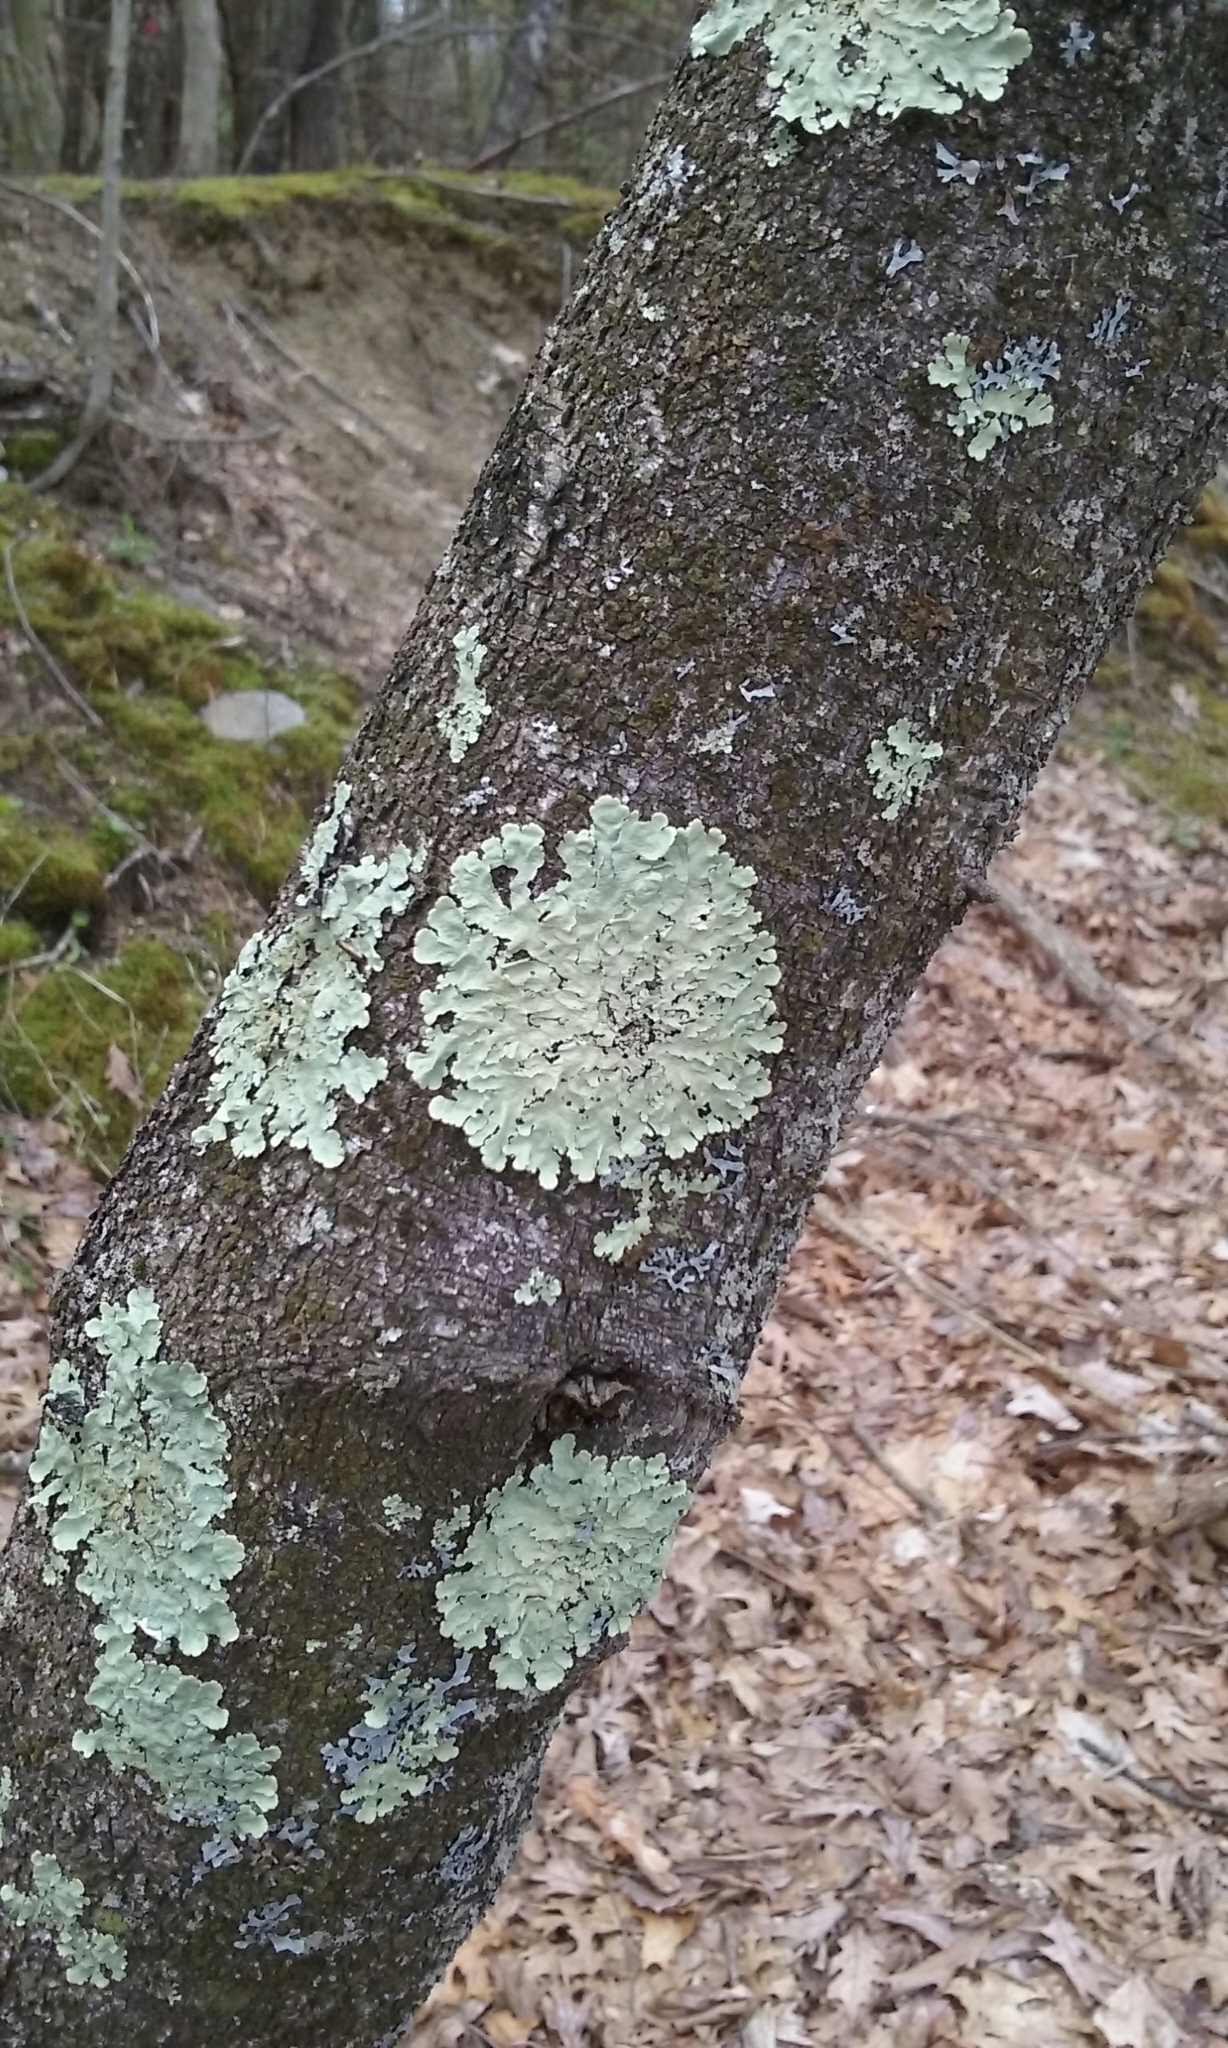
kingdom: Fungi
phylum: Ascomycota
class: Lecanoromycetes
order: Lecanorales
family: Parmeliaceae
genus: Flavoparmelia
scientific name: Flavoparmelia caperata
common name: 40-mile per hour lichen
